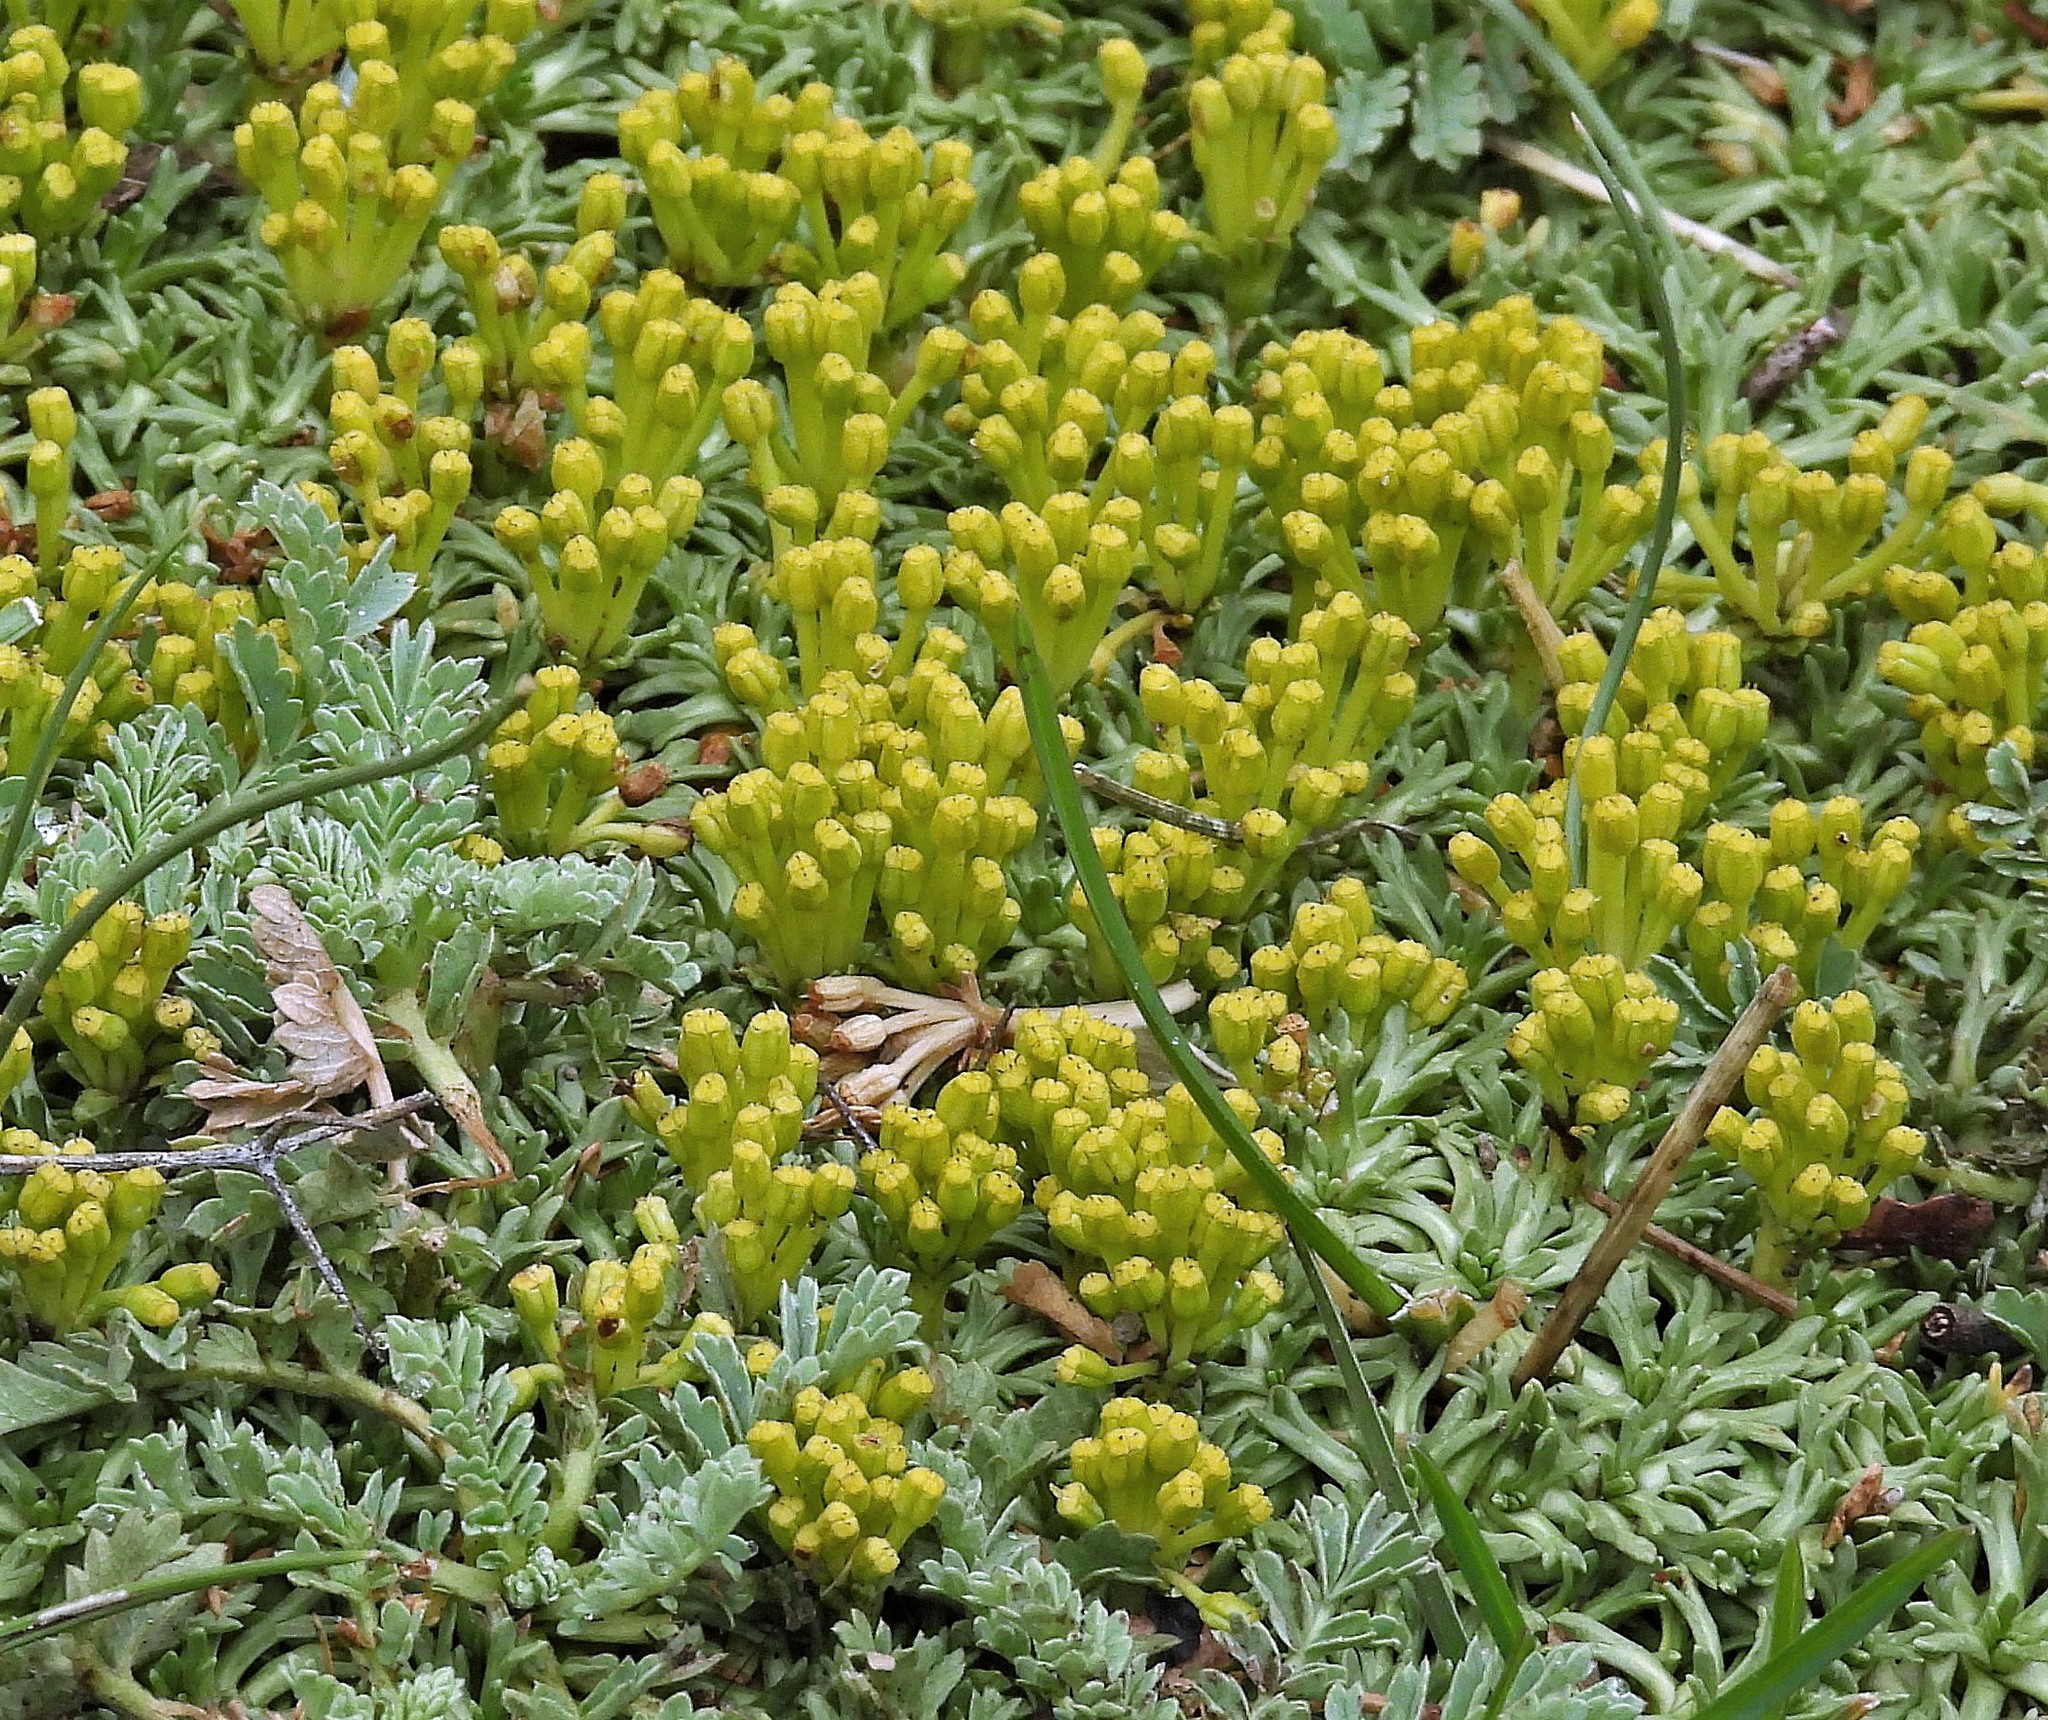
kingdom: Plantae
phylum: Tracheophyta
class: Magnoliopsida
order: Apiales
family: Apiaceae
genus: Azorella
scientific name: Azorella trifurcata
